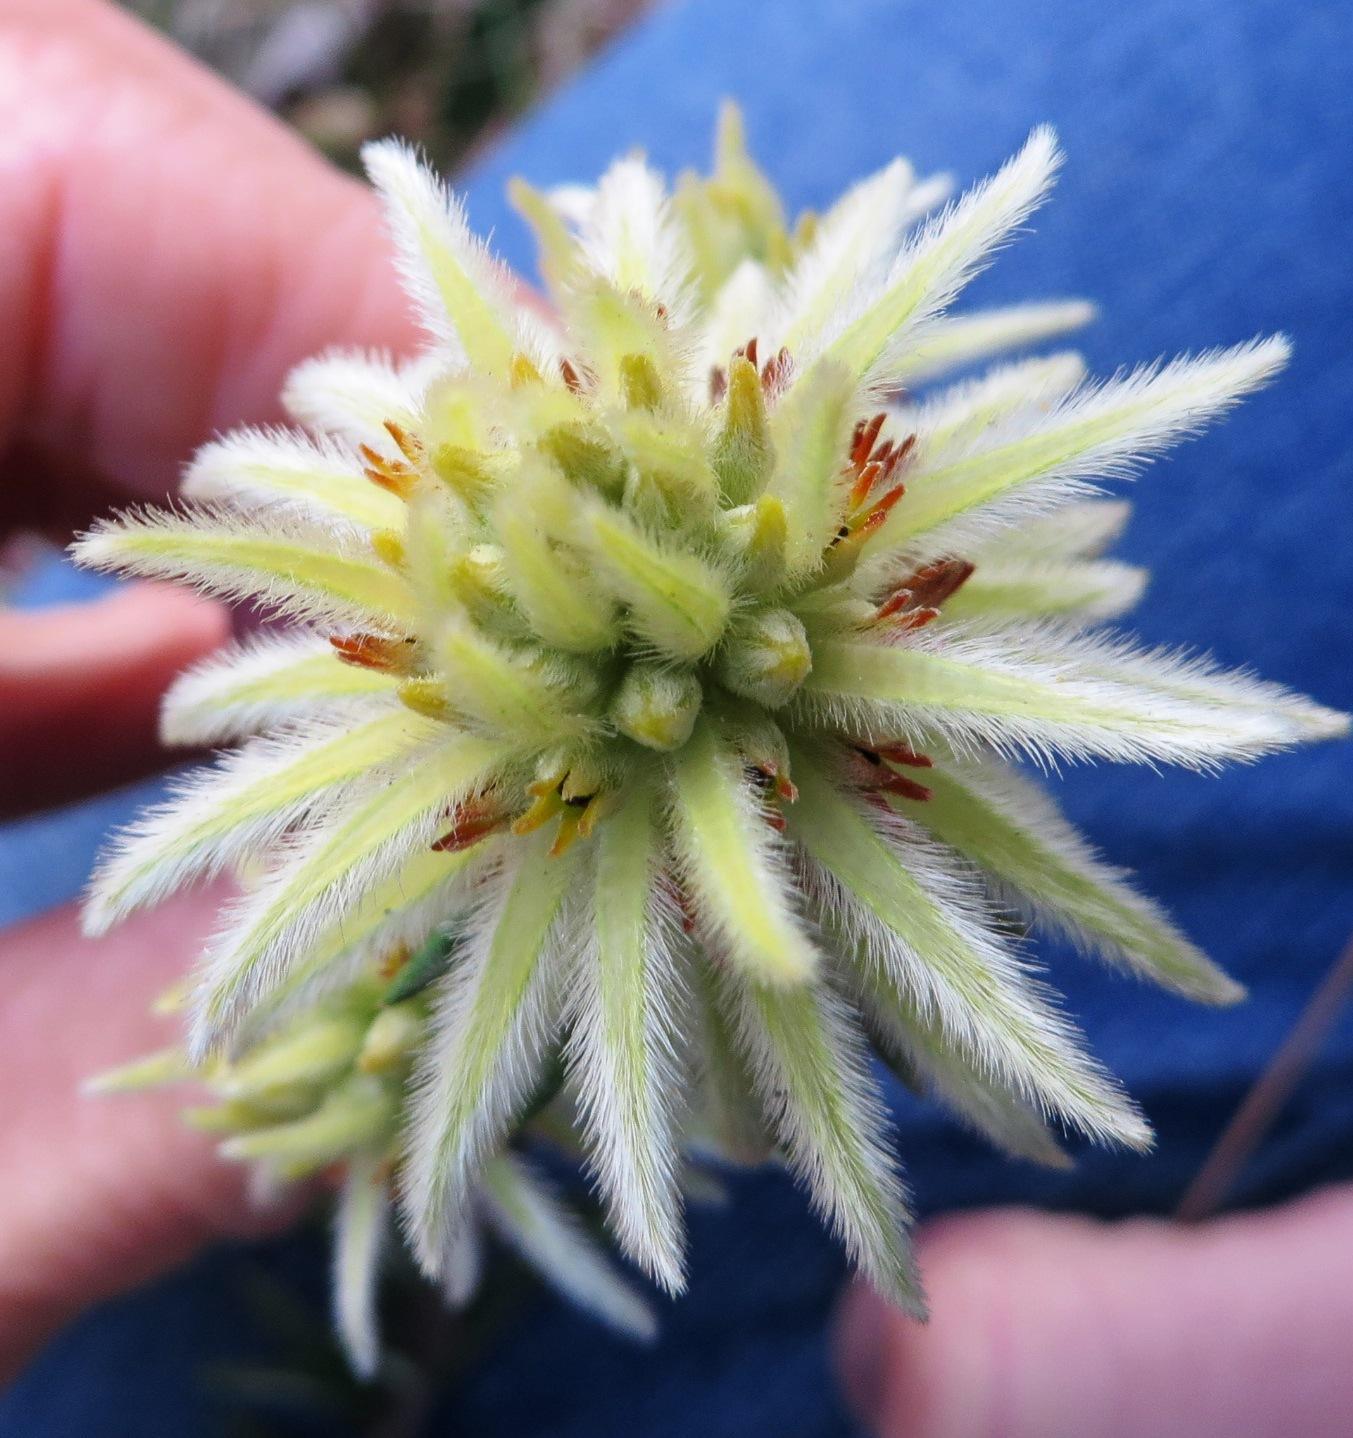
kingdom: Plantae
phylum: Tracheophyta
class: Magnoliopsida
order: Rosales
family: Rhamnaceae
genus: Phylica
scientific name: Phylica plumosa
